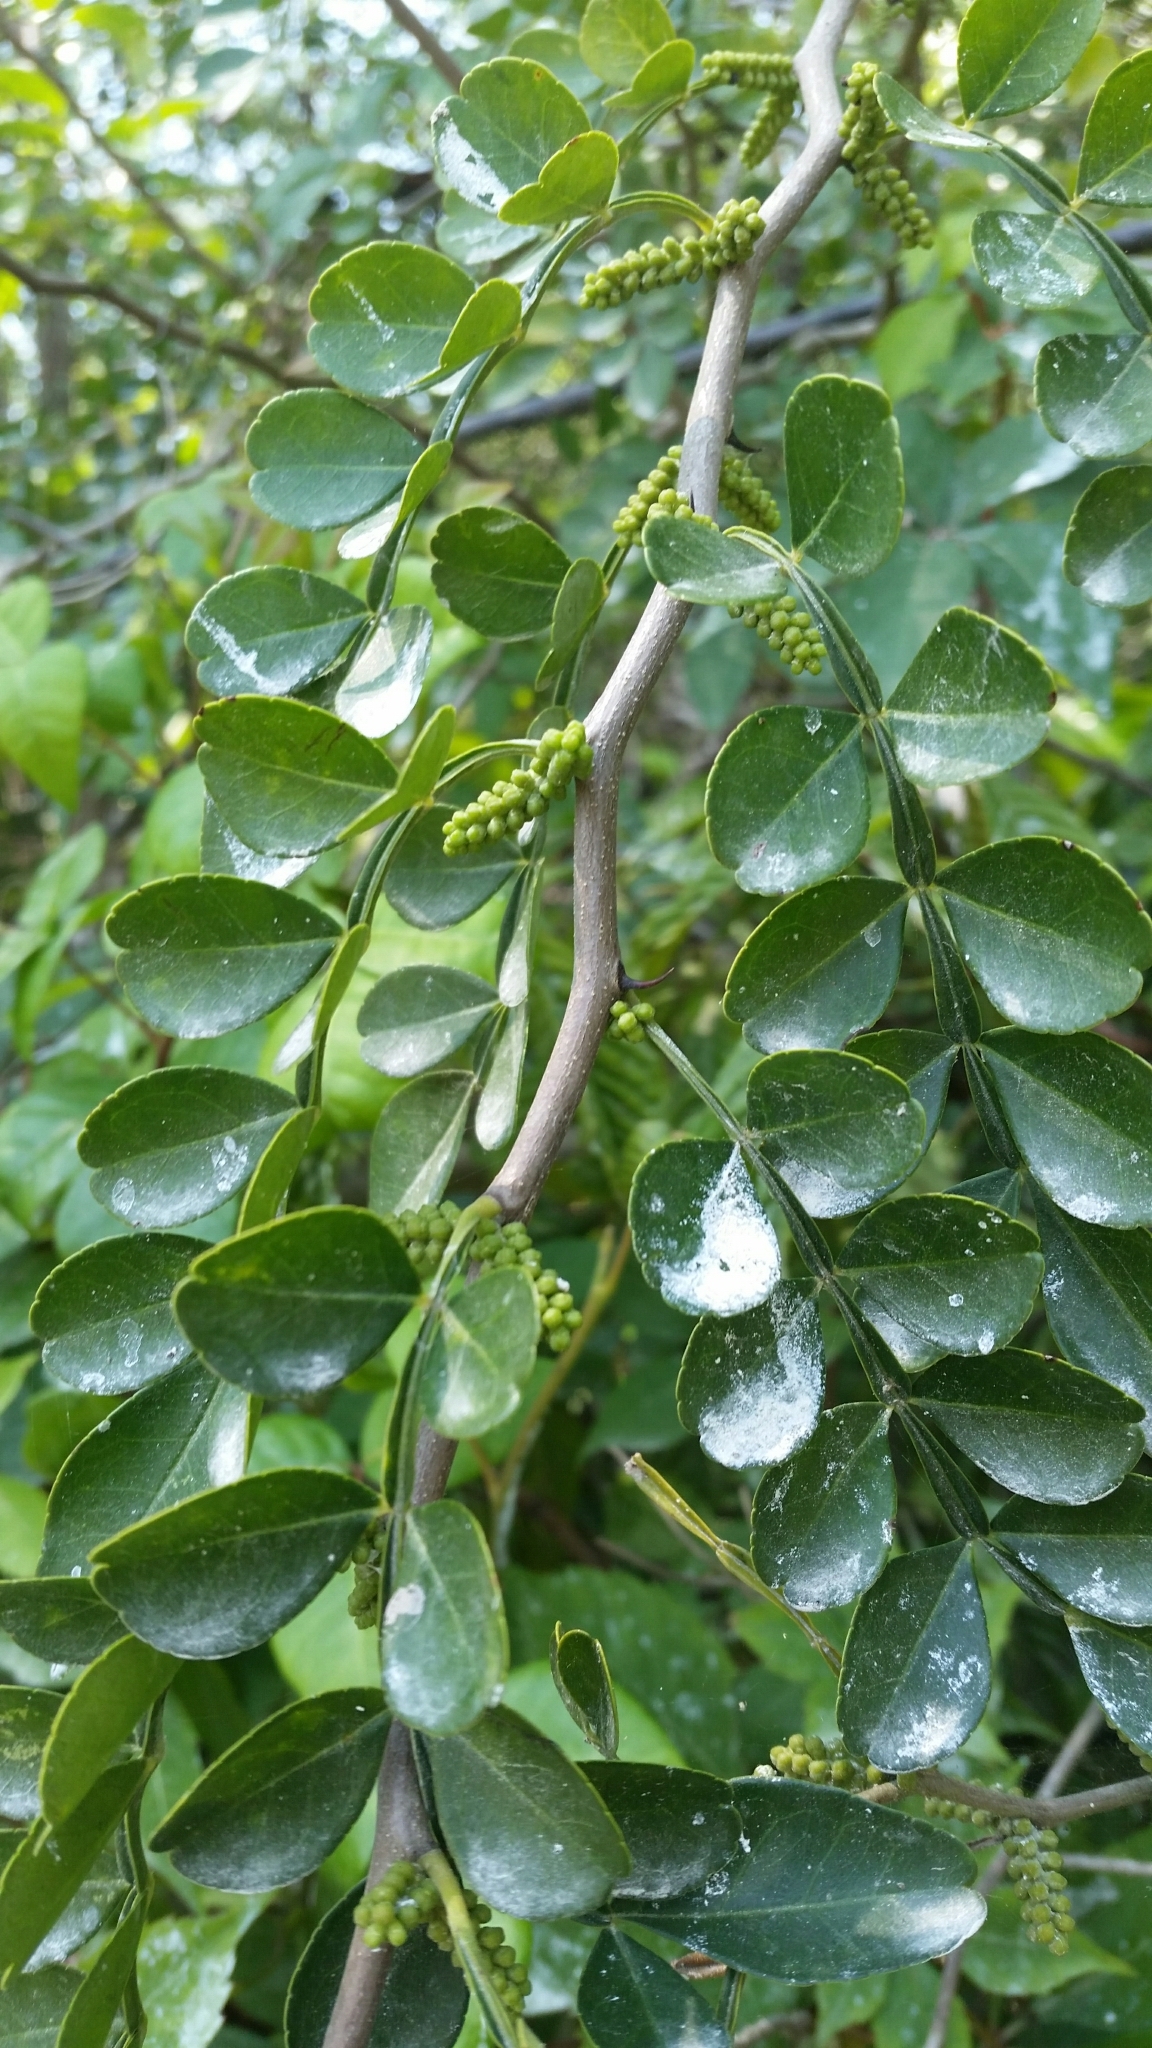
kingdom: Plantae
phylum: Tracheophyta
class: Magnoliopsida
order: Sapindales
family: Rutaceae
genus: Zanthoxylum
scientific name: Zanthoxylum fagara
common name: Lime prickly-ash
